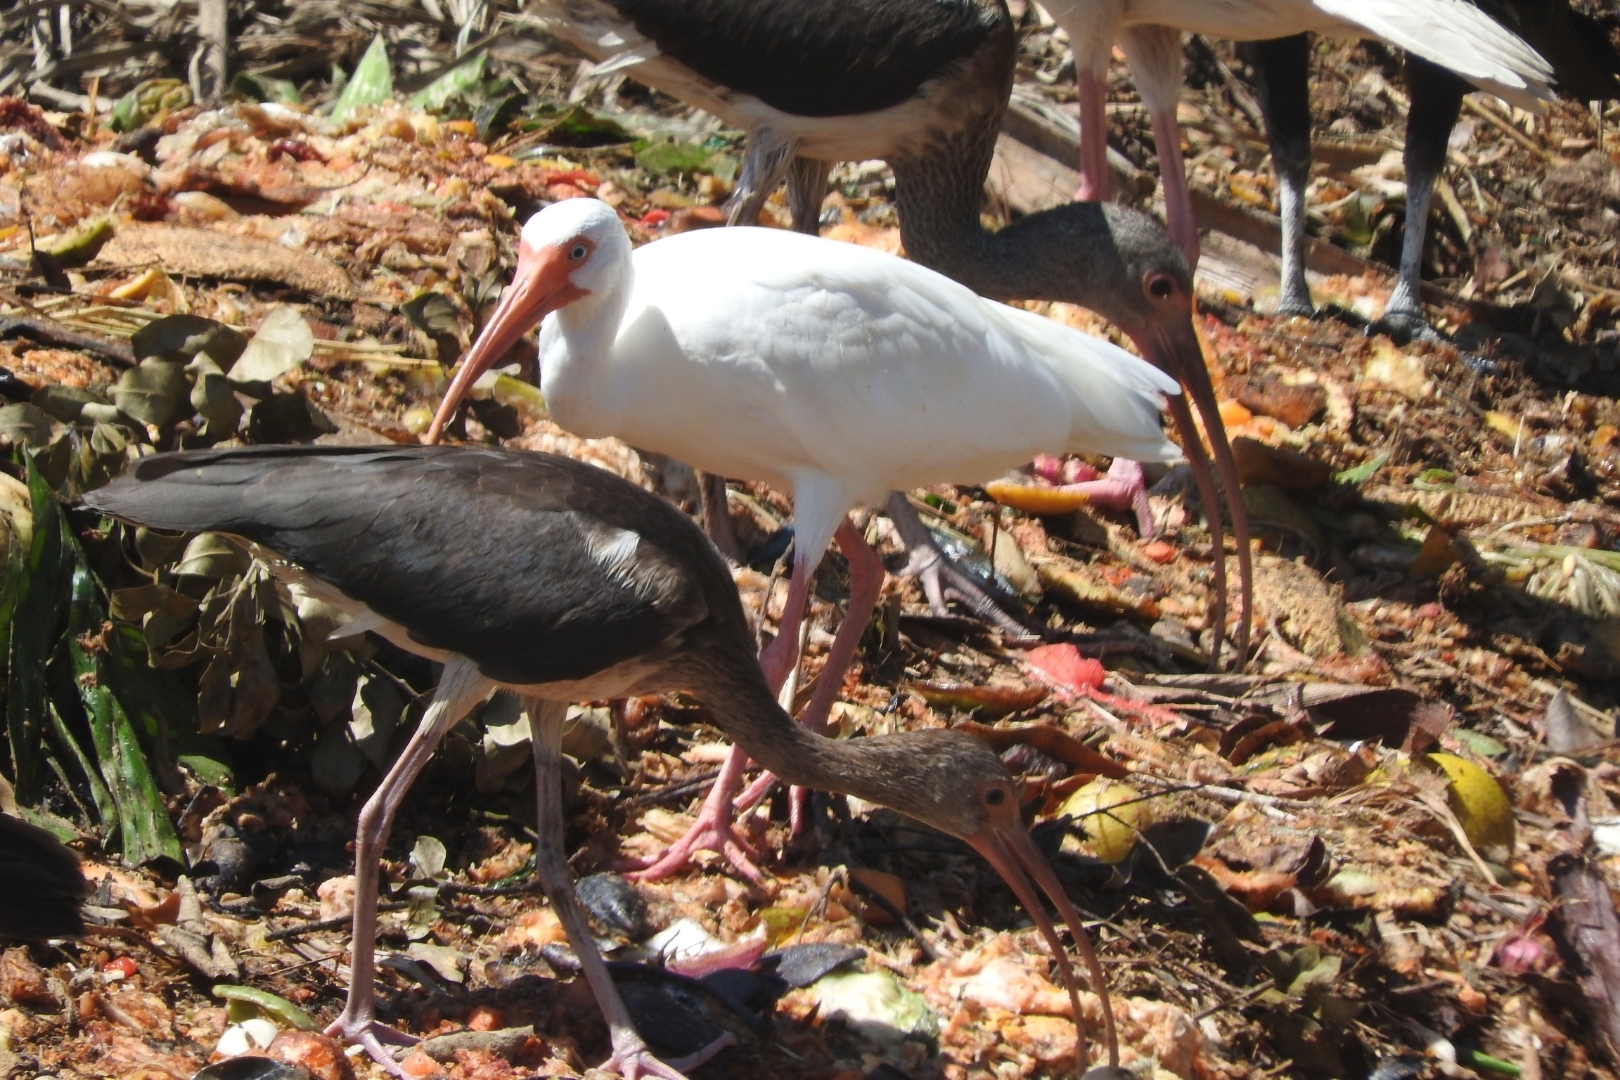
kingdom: Animalia
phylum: Chordata
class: Aves
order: Pelecaniformes
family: Threskiornithidae
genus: Eudocimus
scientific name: Eudocimus albus
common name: White ibis
